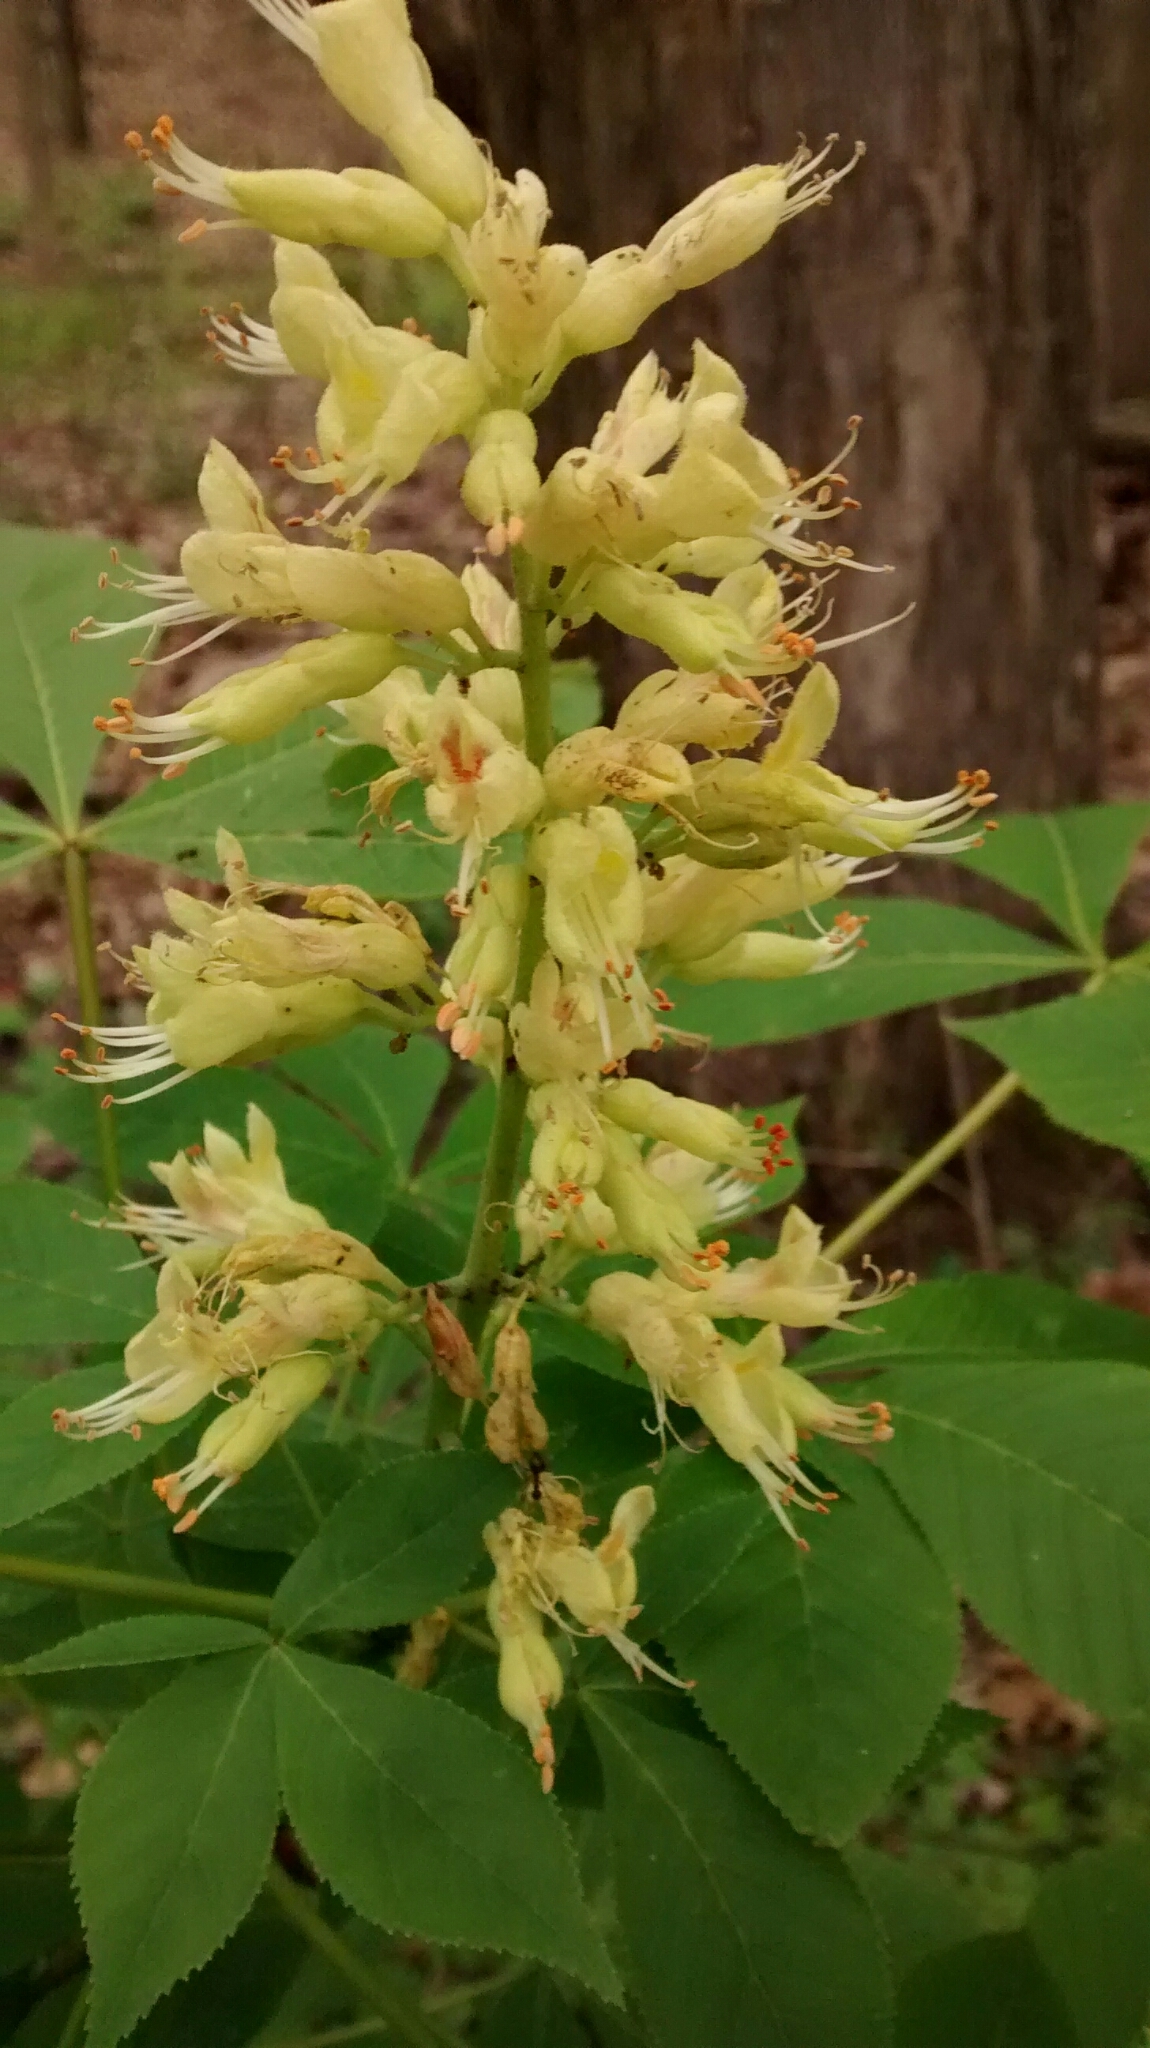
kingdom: Plantae
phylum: Tracheophyta
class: Magnoliopsida
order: Sapindales
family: Sapindaceae
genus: Aesculus
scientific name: Aesculus glabra
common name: Ohio buckeye
